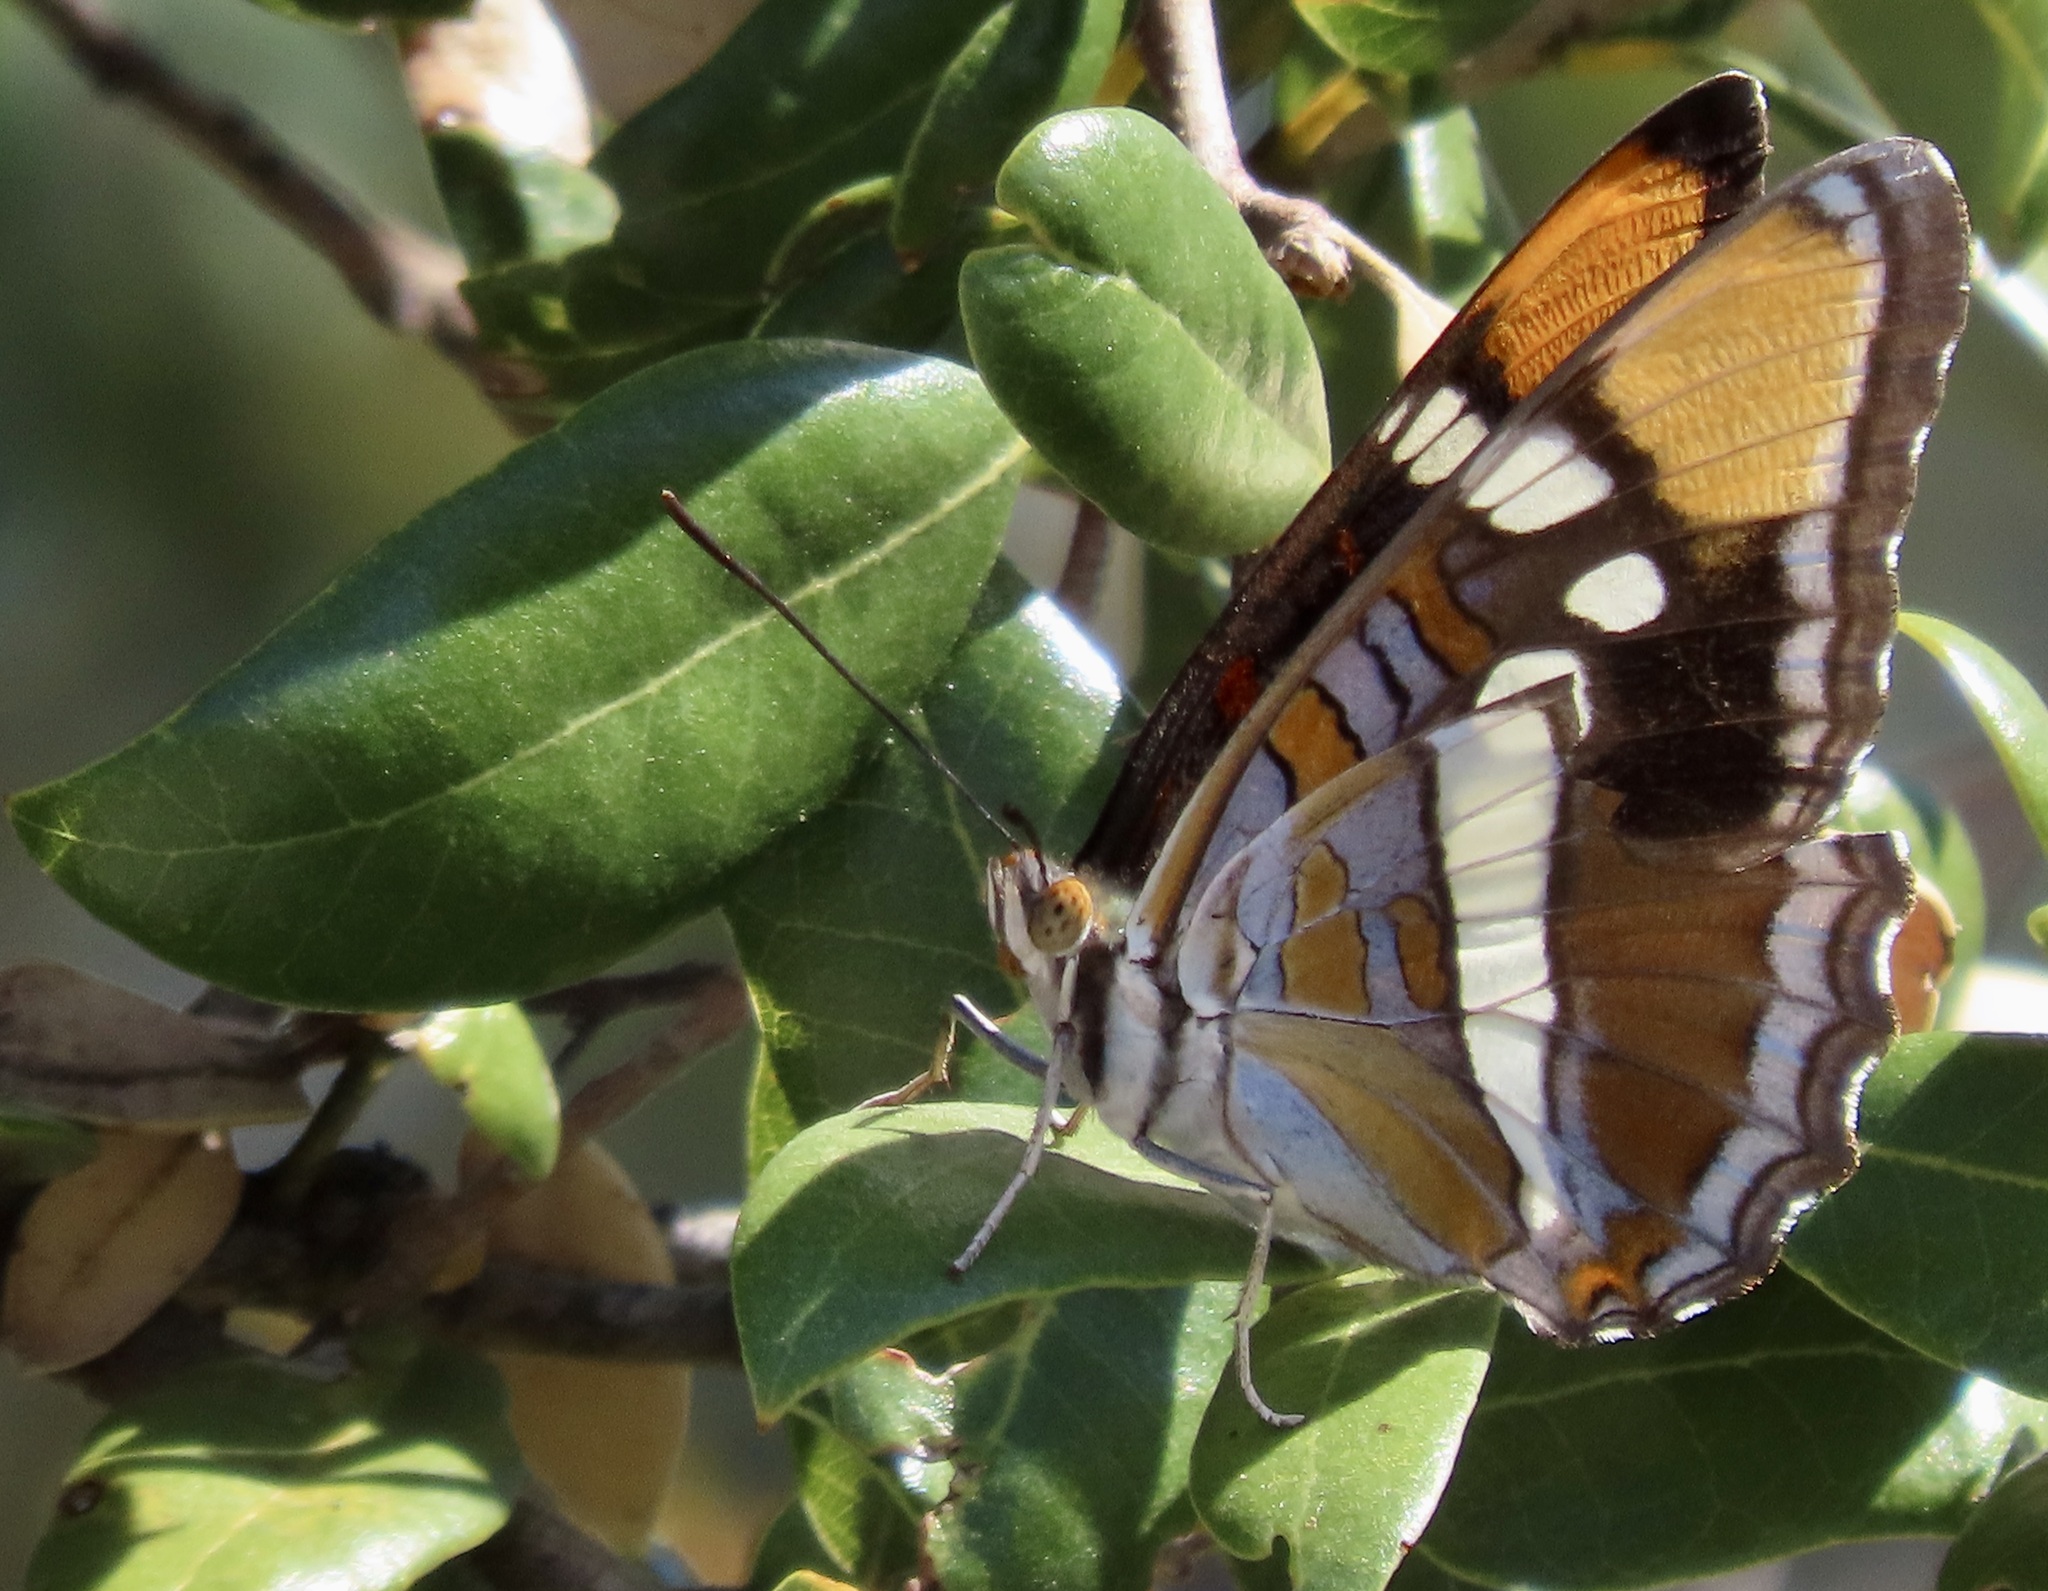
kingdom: Animalia
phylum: Arthropoda
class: Insecta
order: Lepidoptera
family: Nymphalidae
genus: Limenitis
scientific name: Limenitis bredowii
